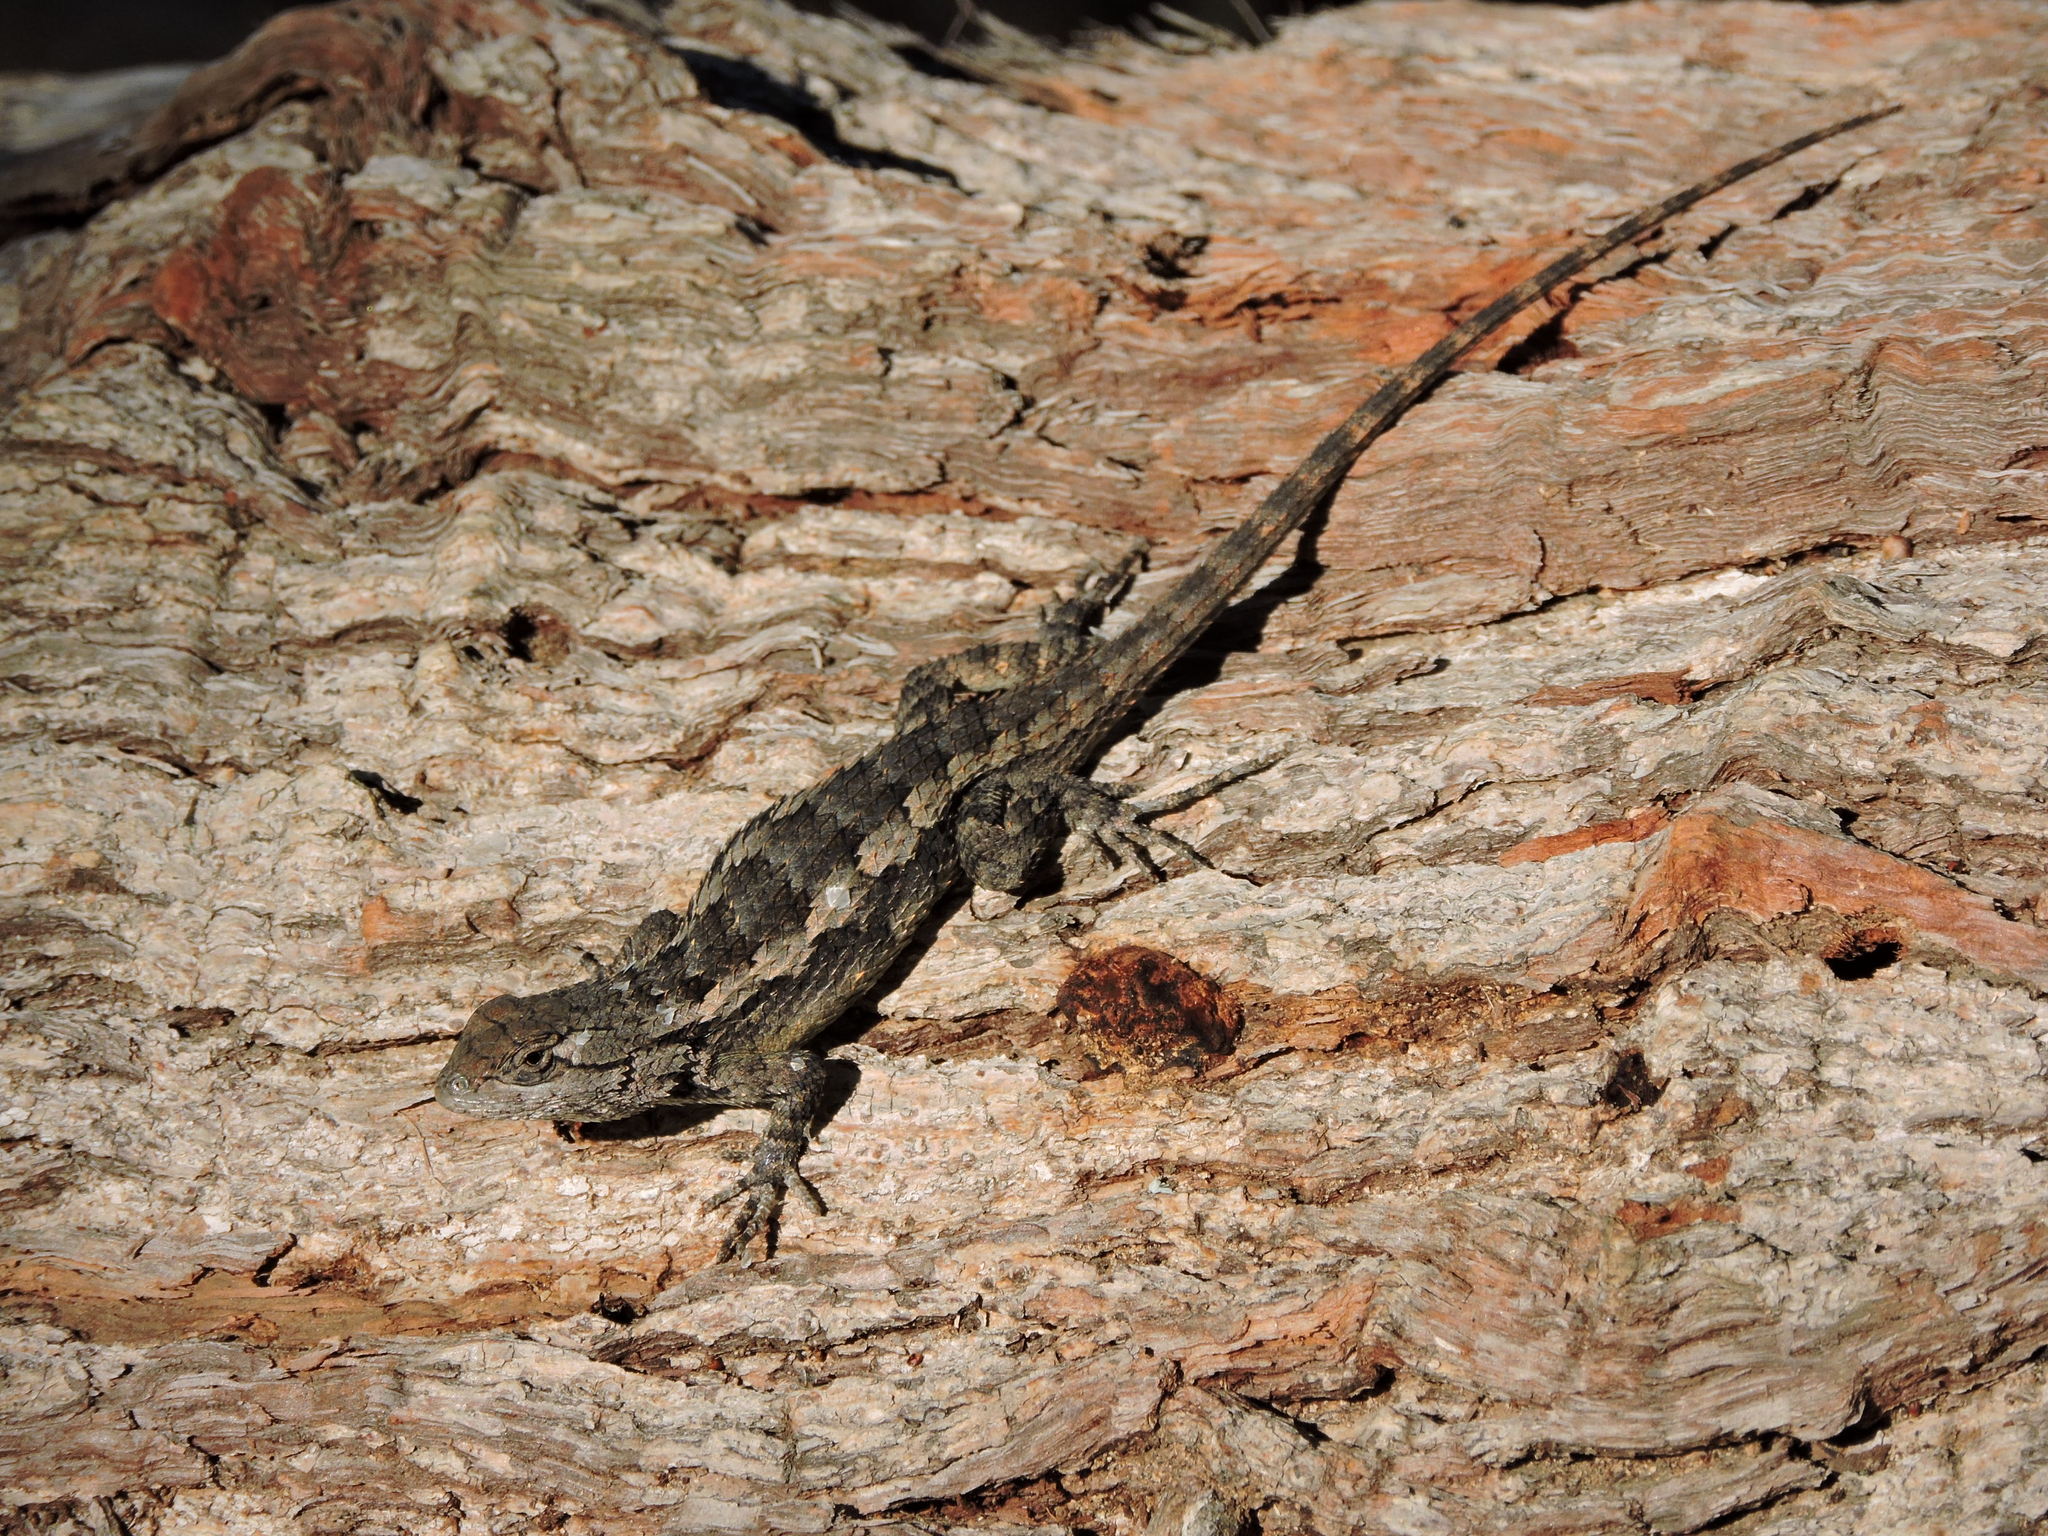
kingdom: Animalia
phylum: Chordata
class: Squamata
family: Phrynosomatidae
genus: Sceloporus
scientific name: Sceloporus olivaceus
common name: Texas spiny lizard
